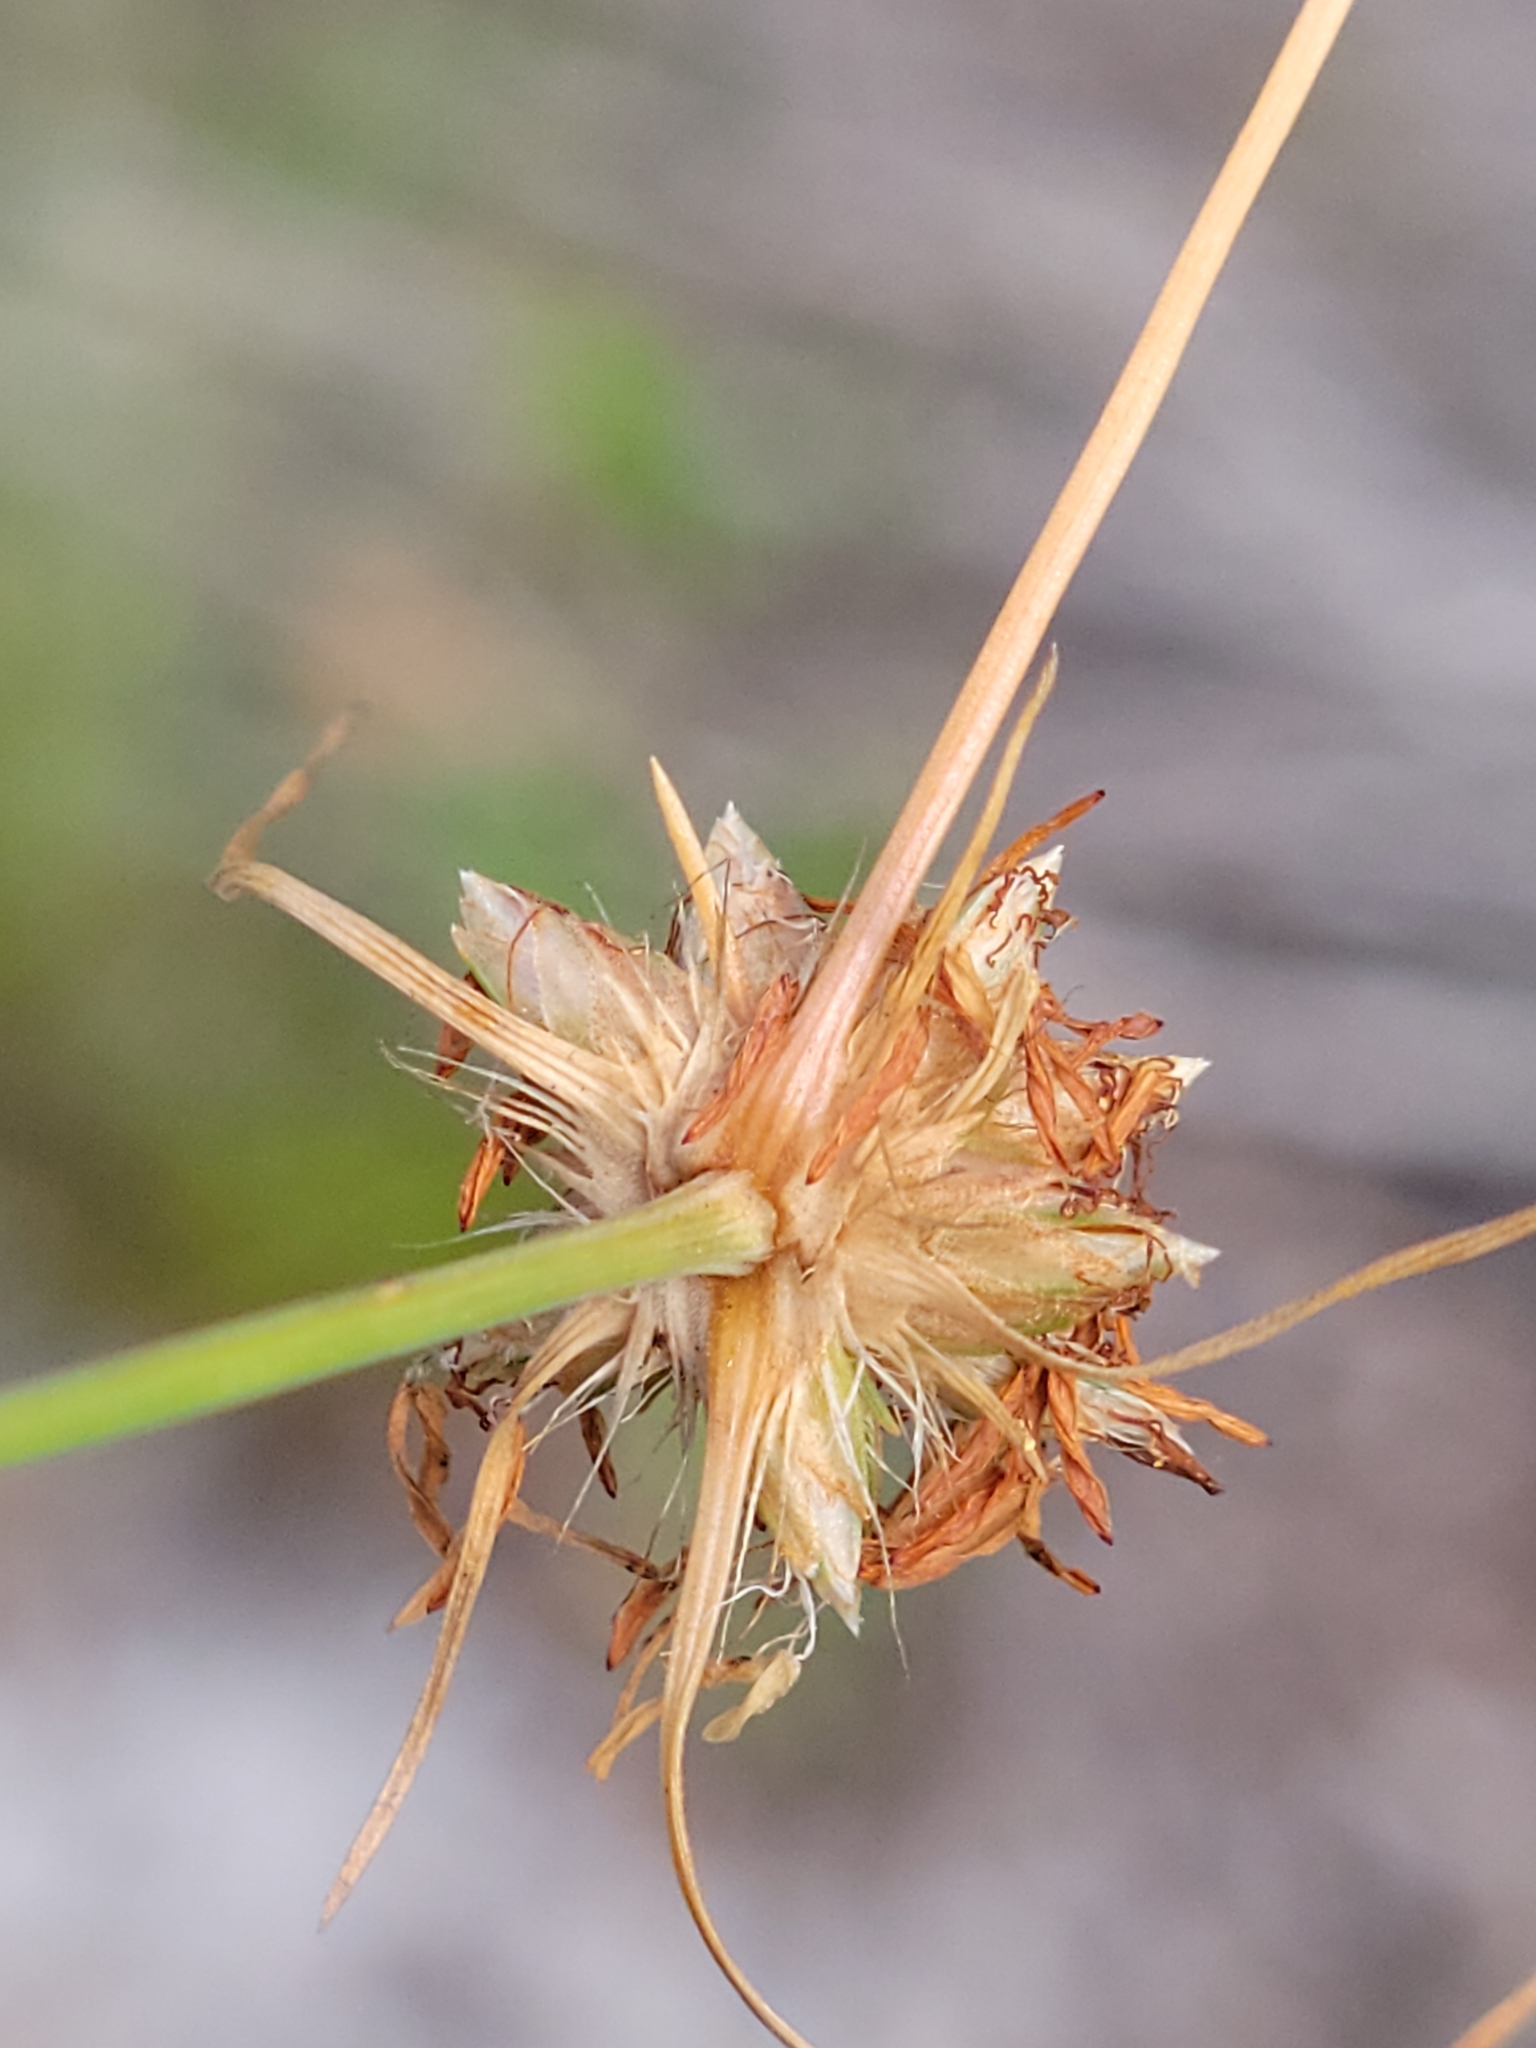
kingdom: Plantae
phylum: Tracheophyta
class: Liliopsida
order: Poales
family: Cyperaceae
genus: Bulbostylis
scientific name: Bulbostylis warei
